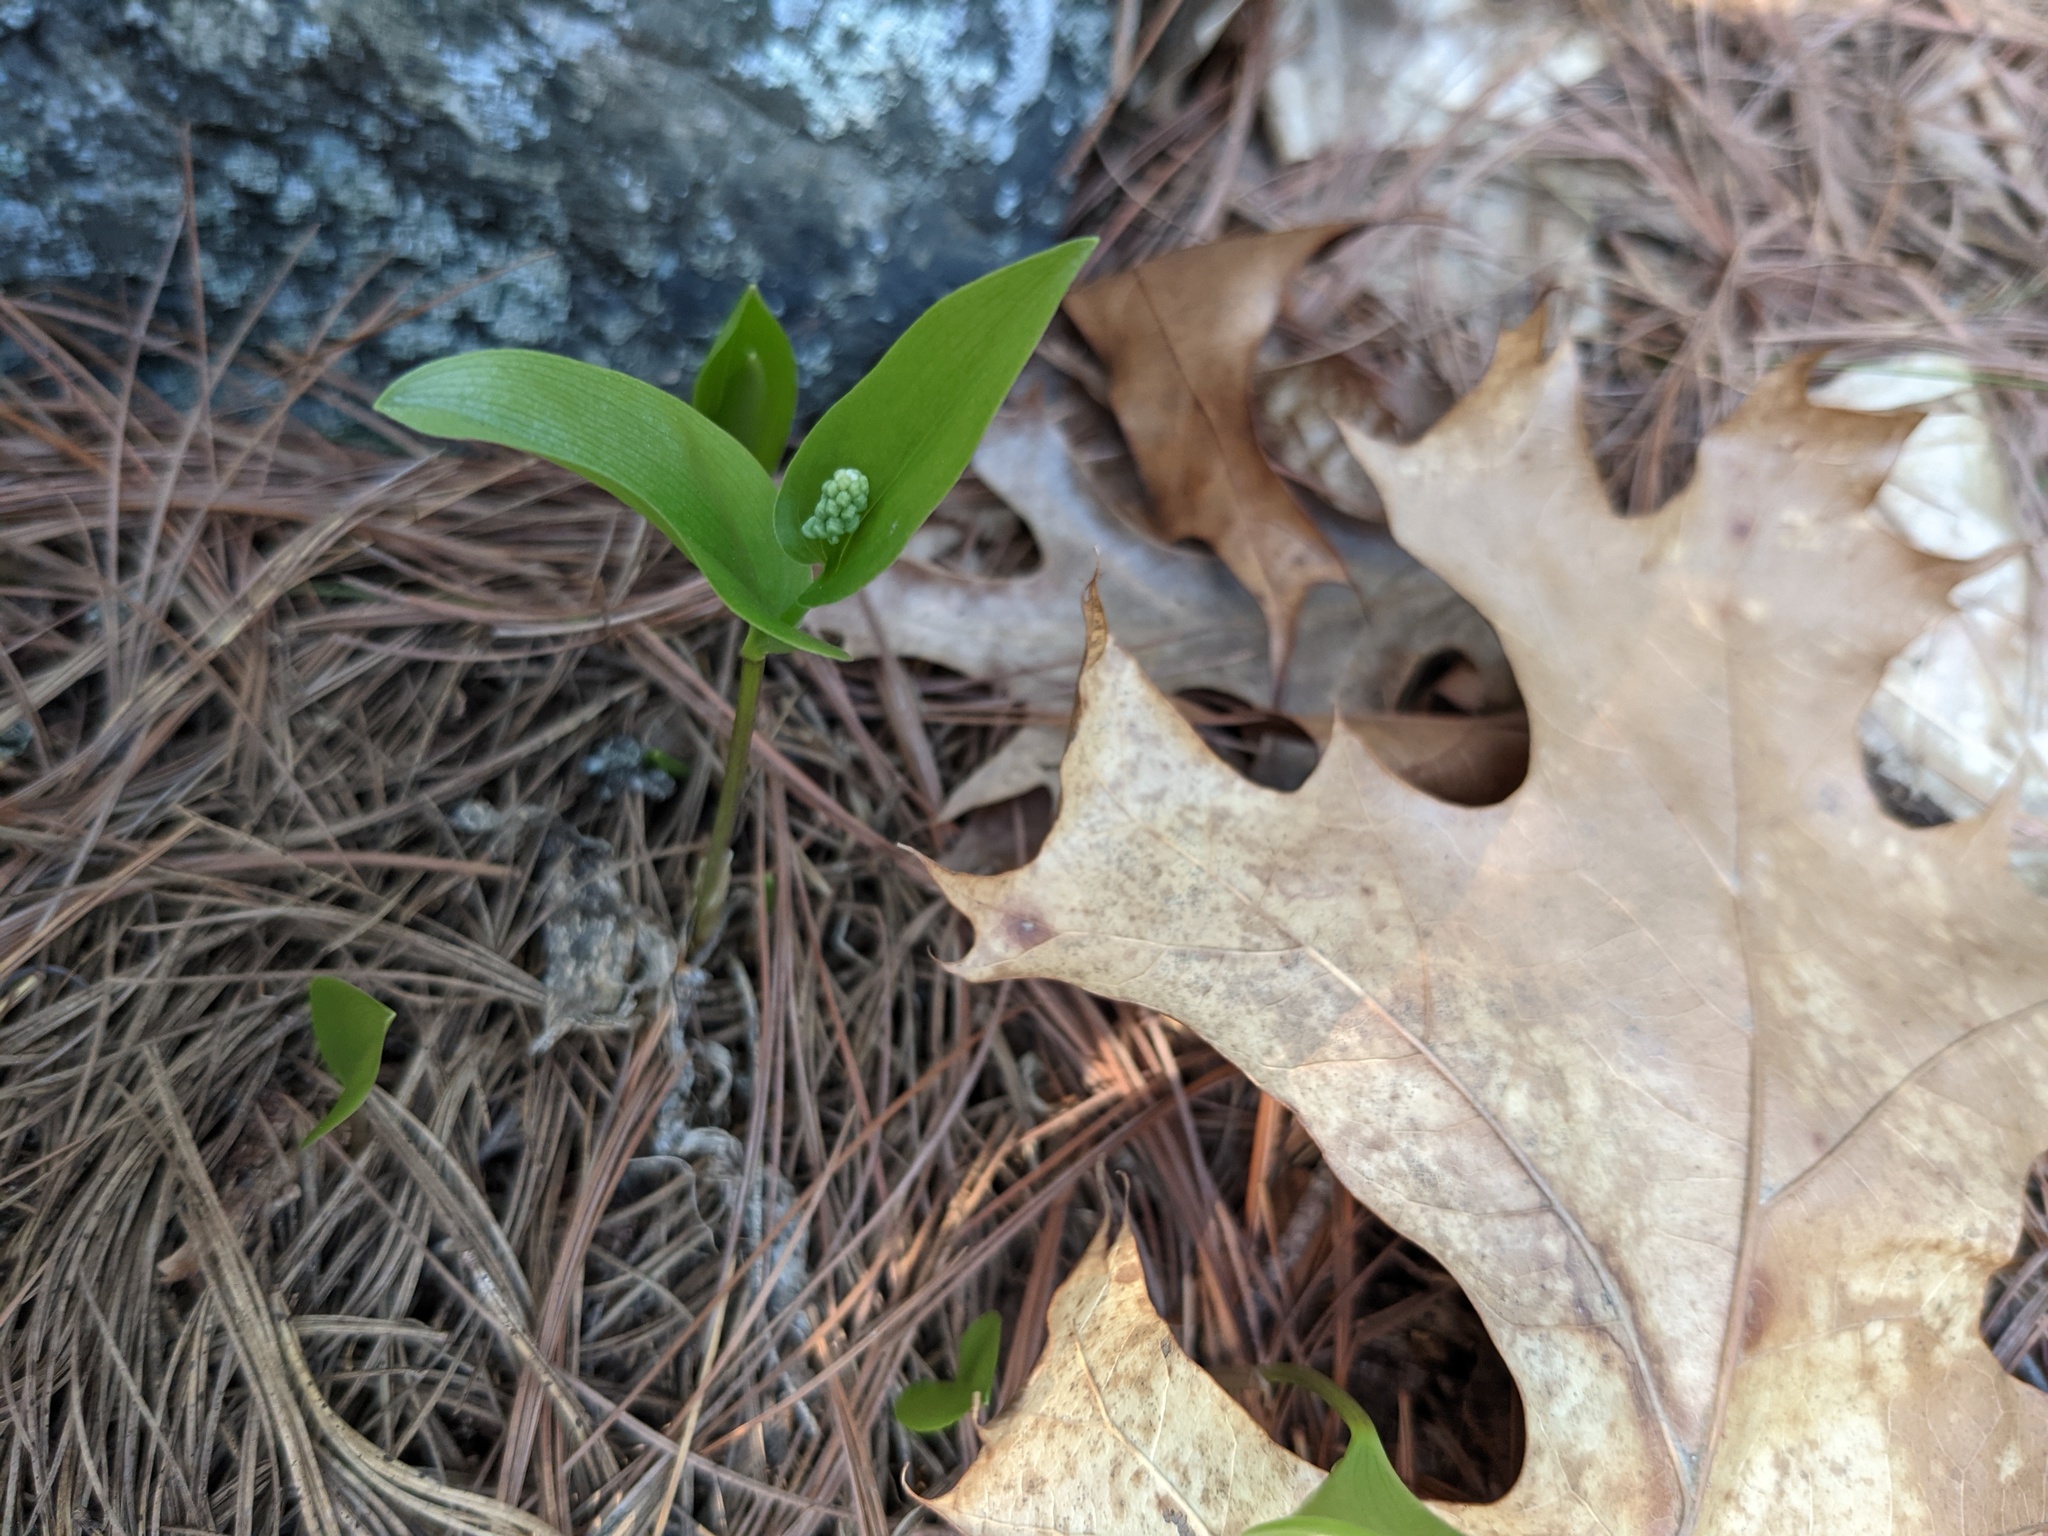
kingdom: Plantae
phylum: Tracheophyta
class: Liliopsida
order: Asparagales
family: Asparagaceae
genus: Maianthemum
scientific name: Maianthemum canadense
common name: False lily-of-the-valley
